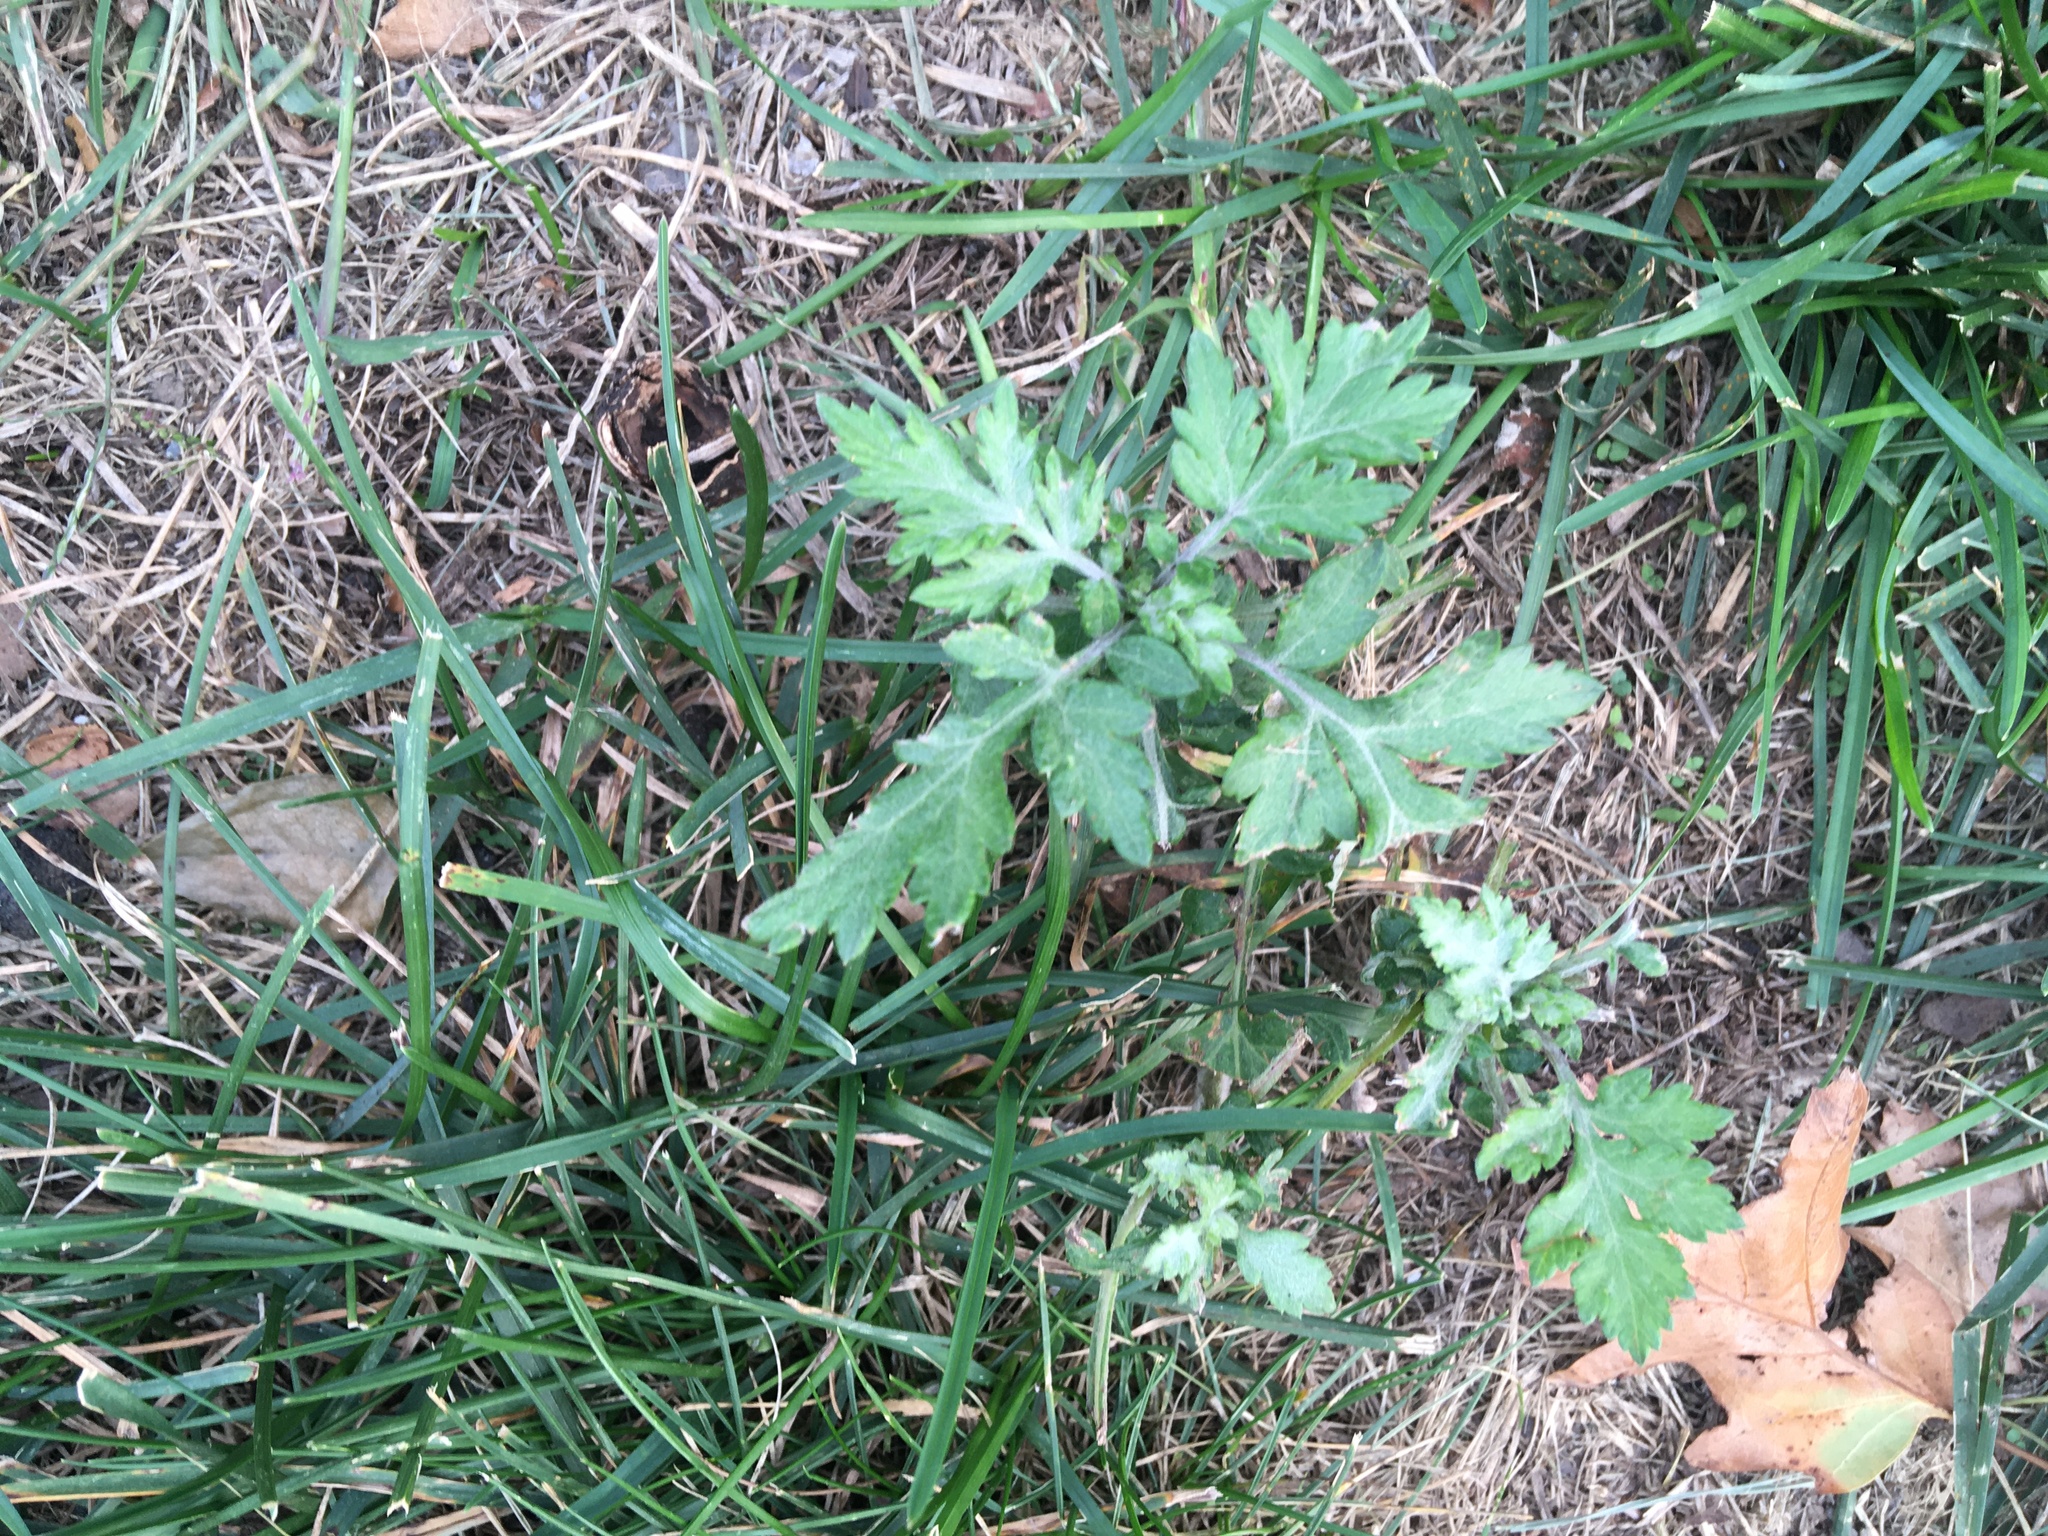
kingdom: Plantae
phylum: Tracheophyta
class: Magnoliopsida
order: Asterales
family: Asteraceae
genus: Artemisia
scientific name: Artemisia vulgaris
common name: Mugwort
